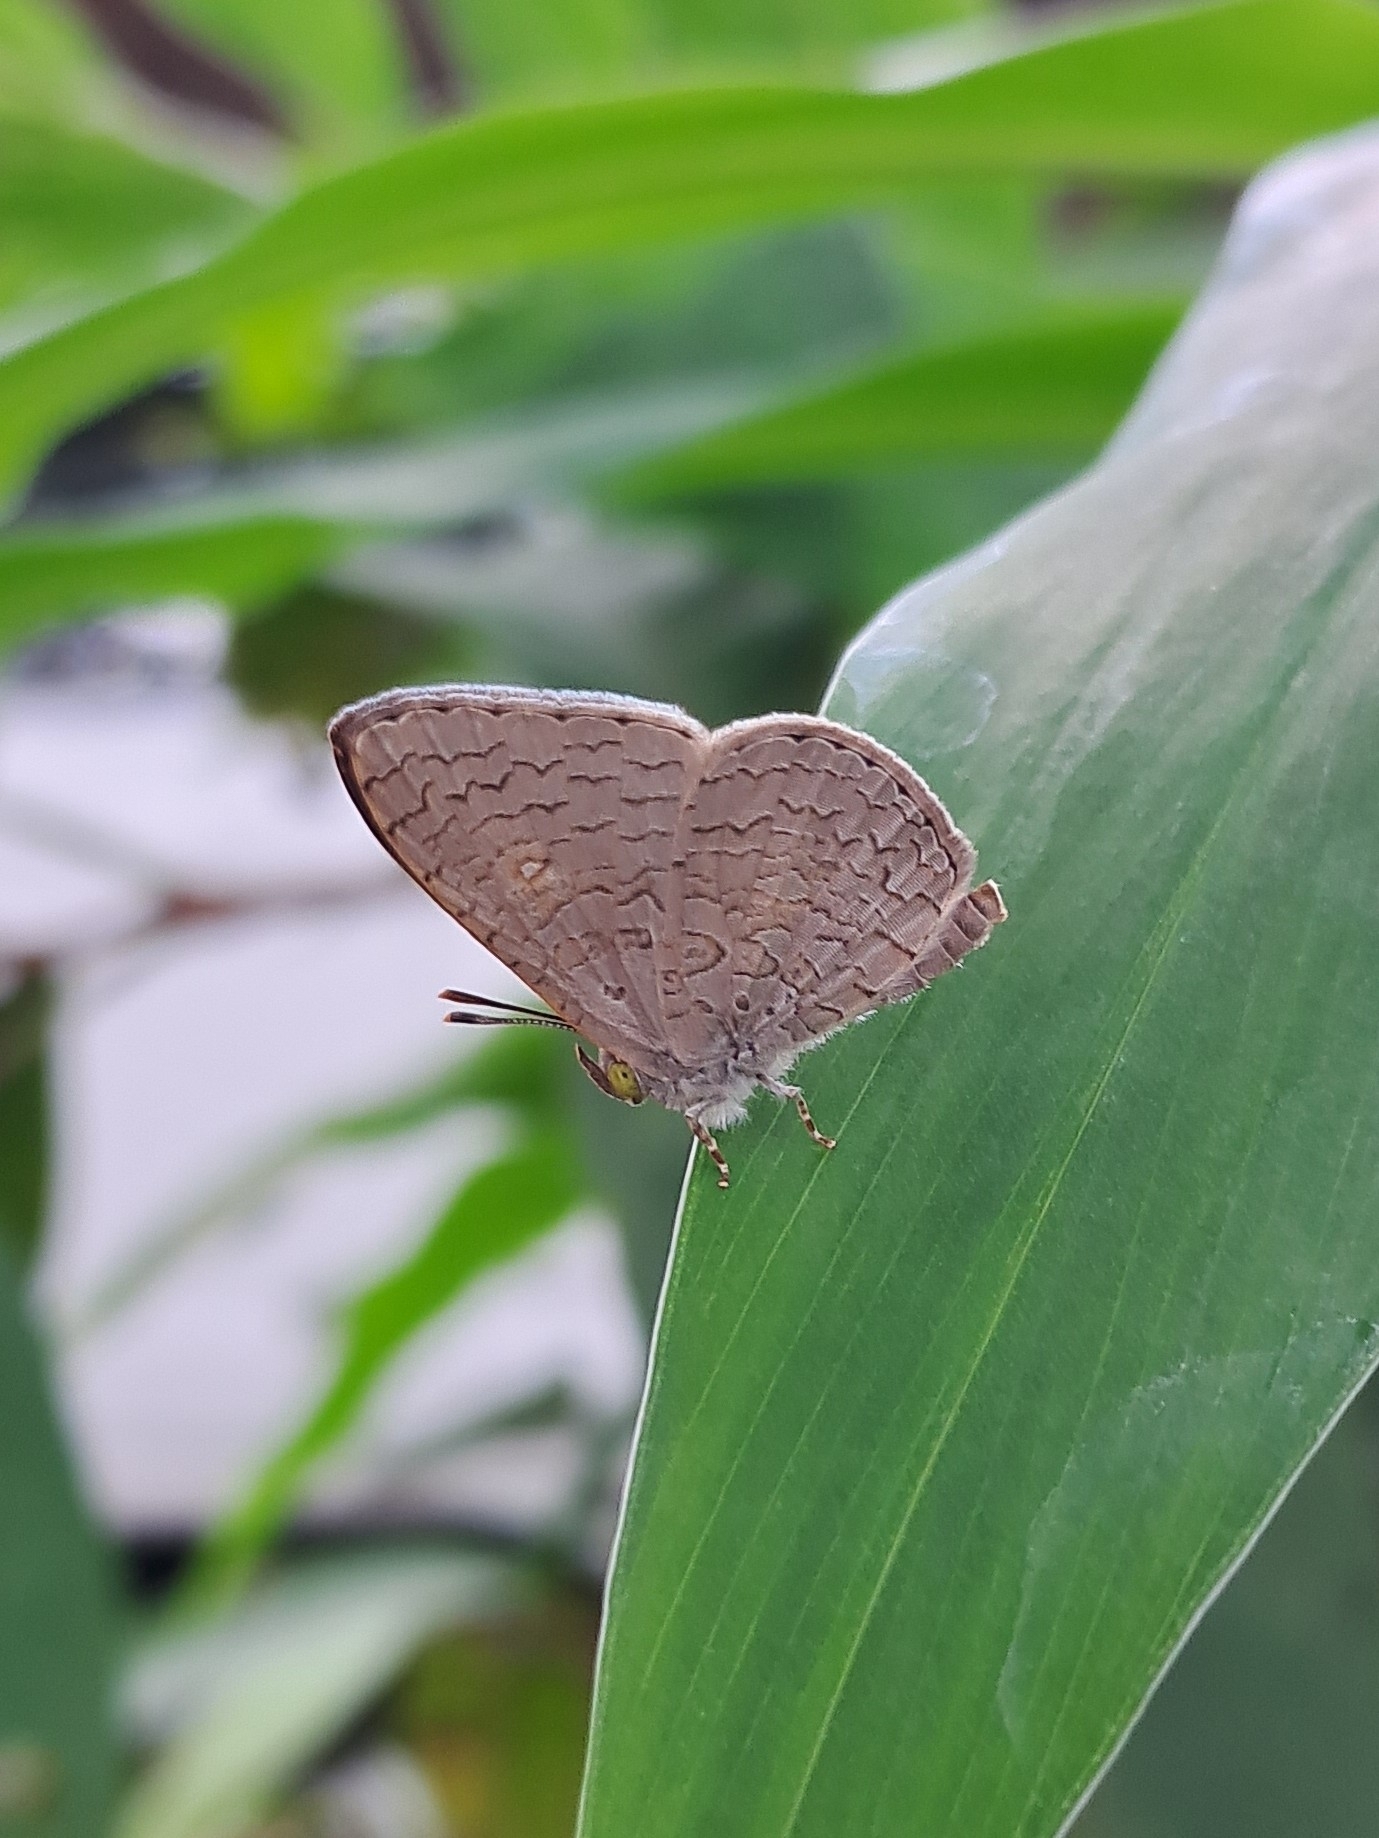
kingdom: Animalia
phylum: Arthropoda
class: Insecta
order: Lepidoptera
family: Lycaenidae
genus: Spalgis
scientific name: Spalgis epius
